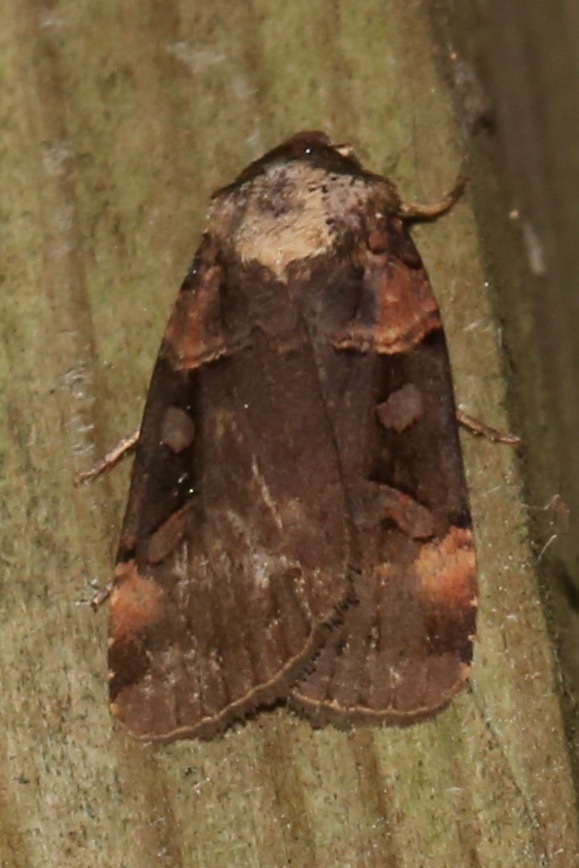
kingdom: Animalia
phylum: Arthropoda
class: Insecta
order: Lepidoptera
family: Noctuidae
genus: Pseudohermonassa
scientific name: Pseudohermonassa bicarnea
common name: Pink spotted dart
